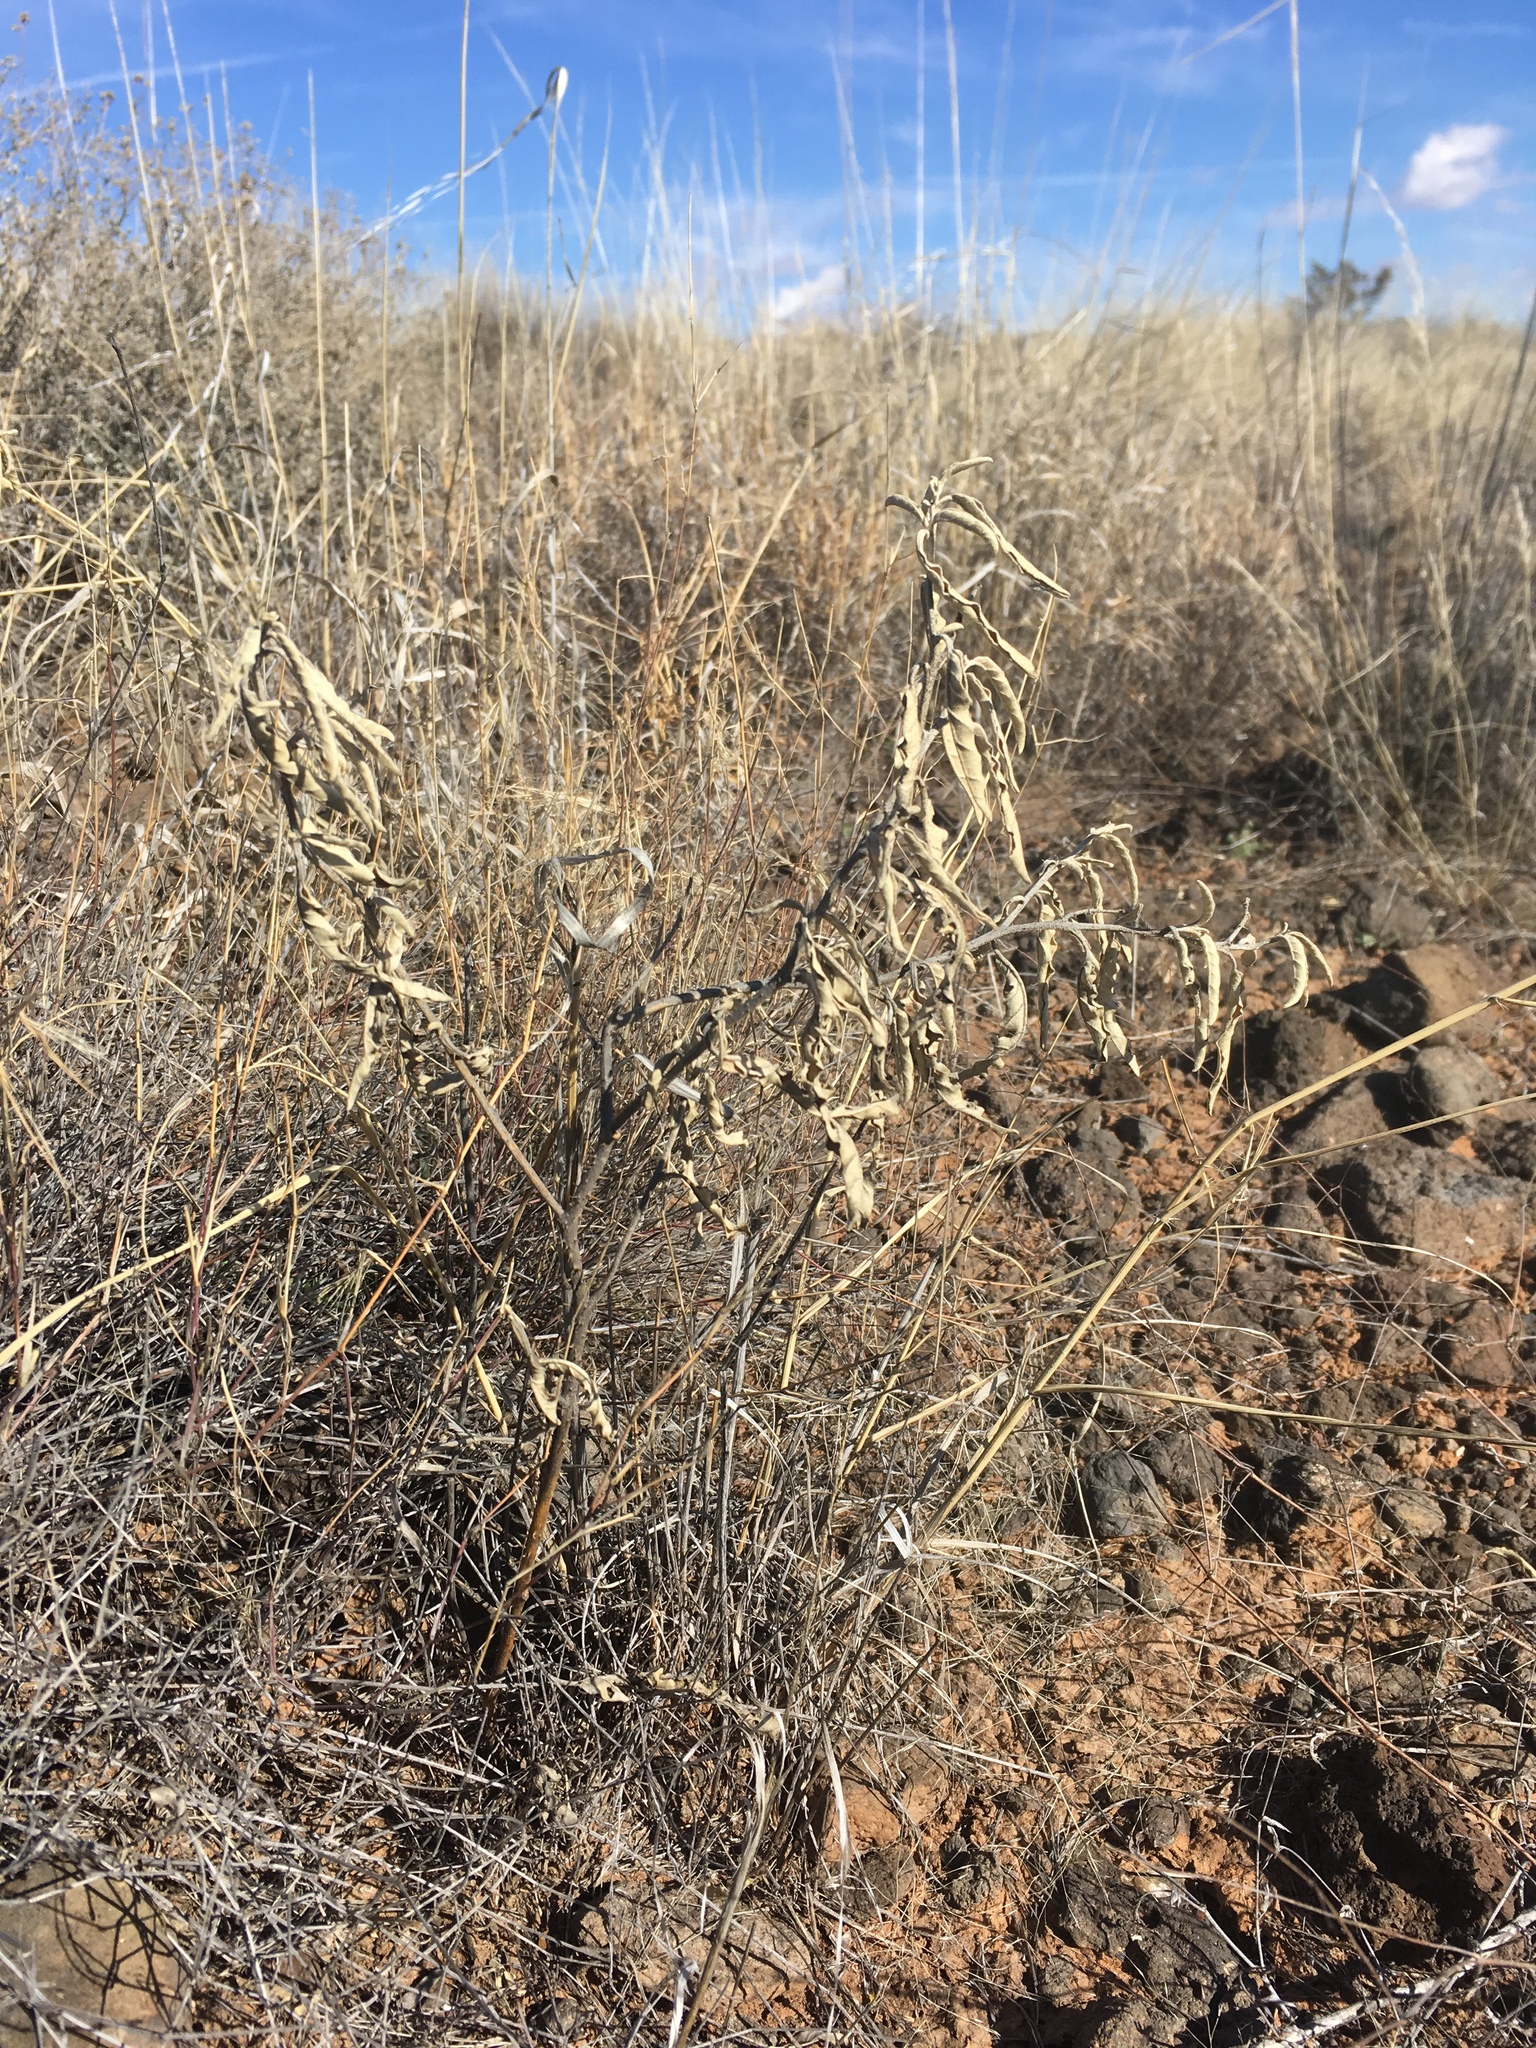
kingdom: Plantae
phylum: Tracheophyta
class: Magnoliopsida
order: Solanales
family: Solanaceae
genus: Solanum
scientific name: Solanum elaeagnifolium
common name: Silverleaf nightshade
